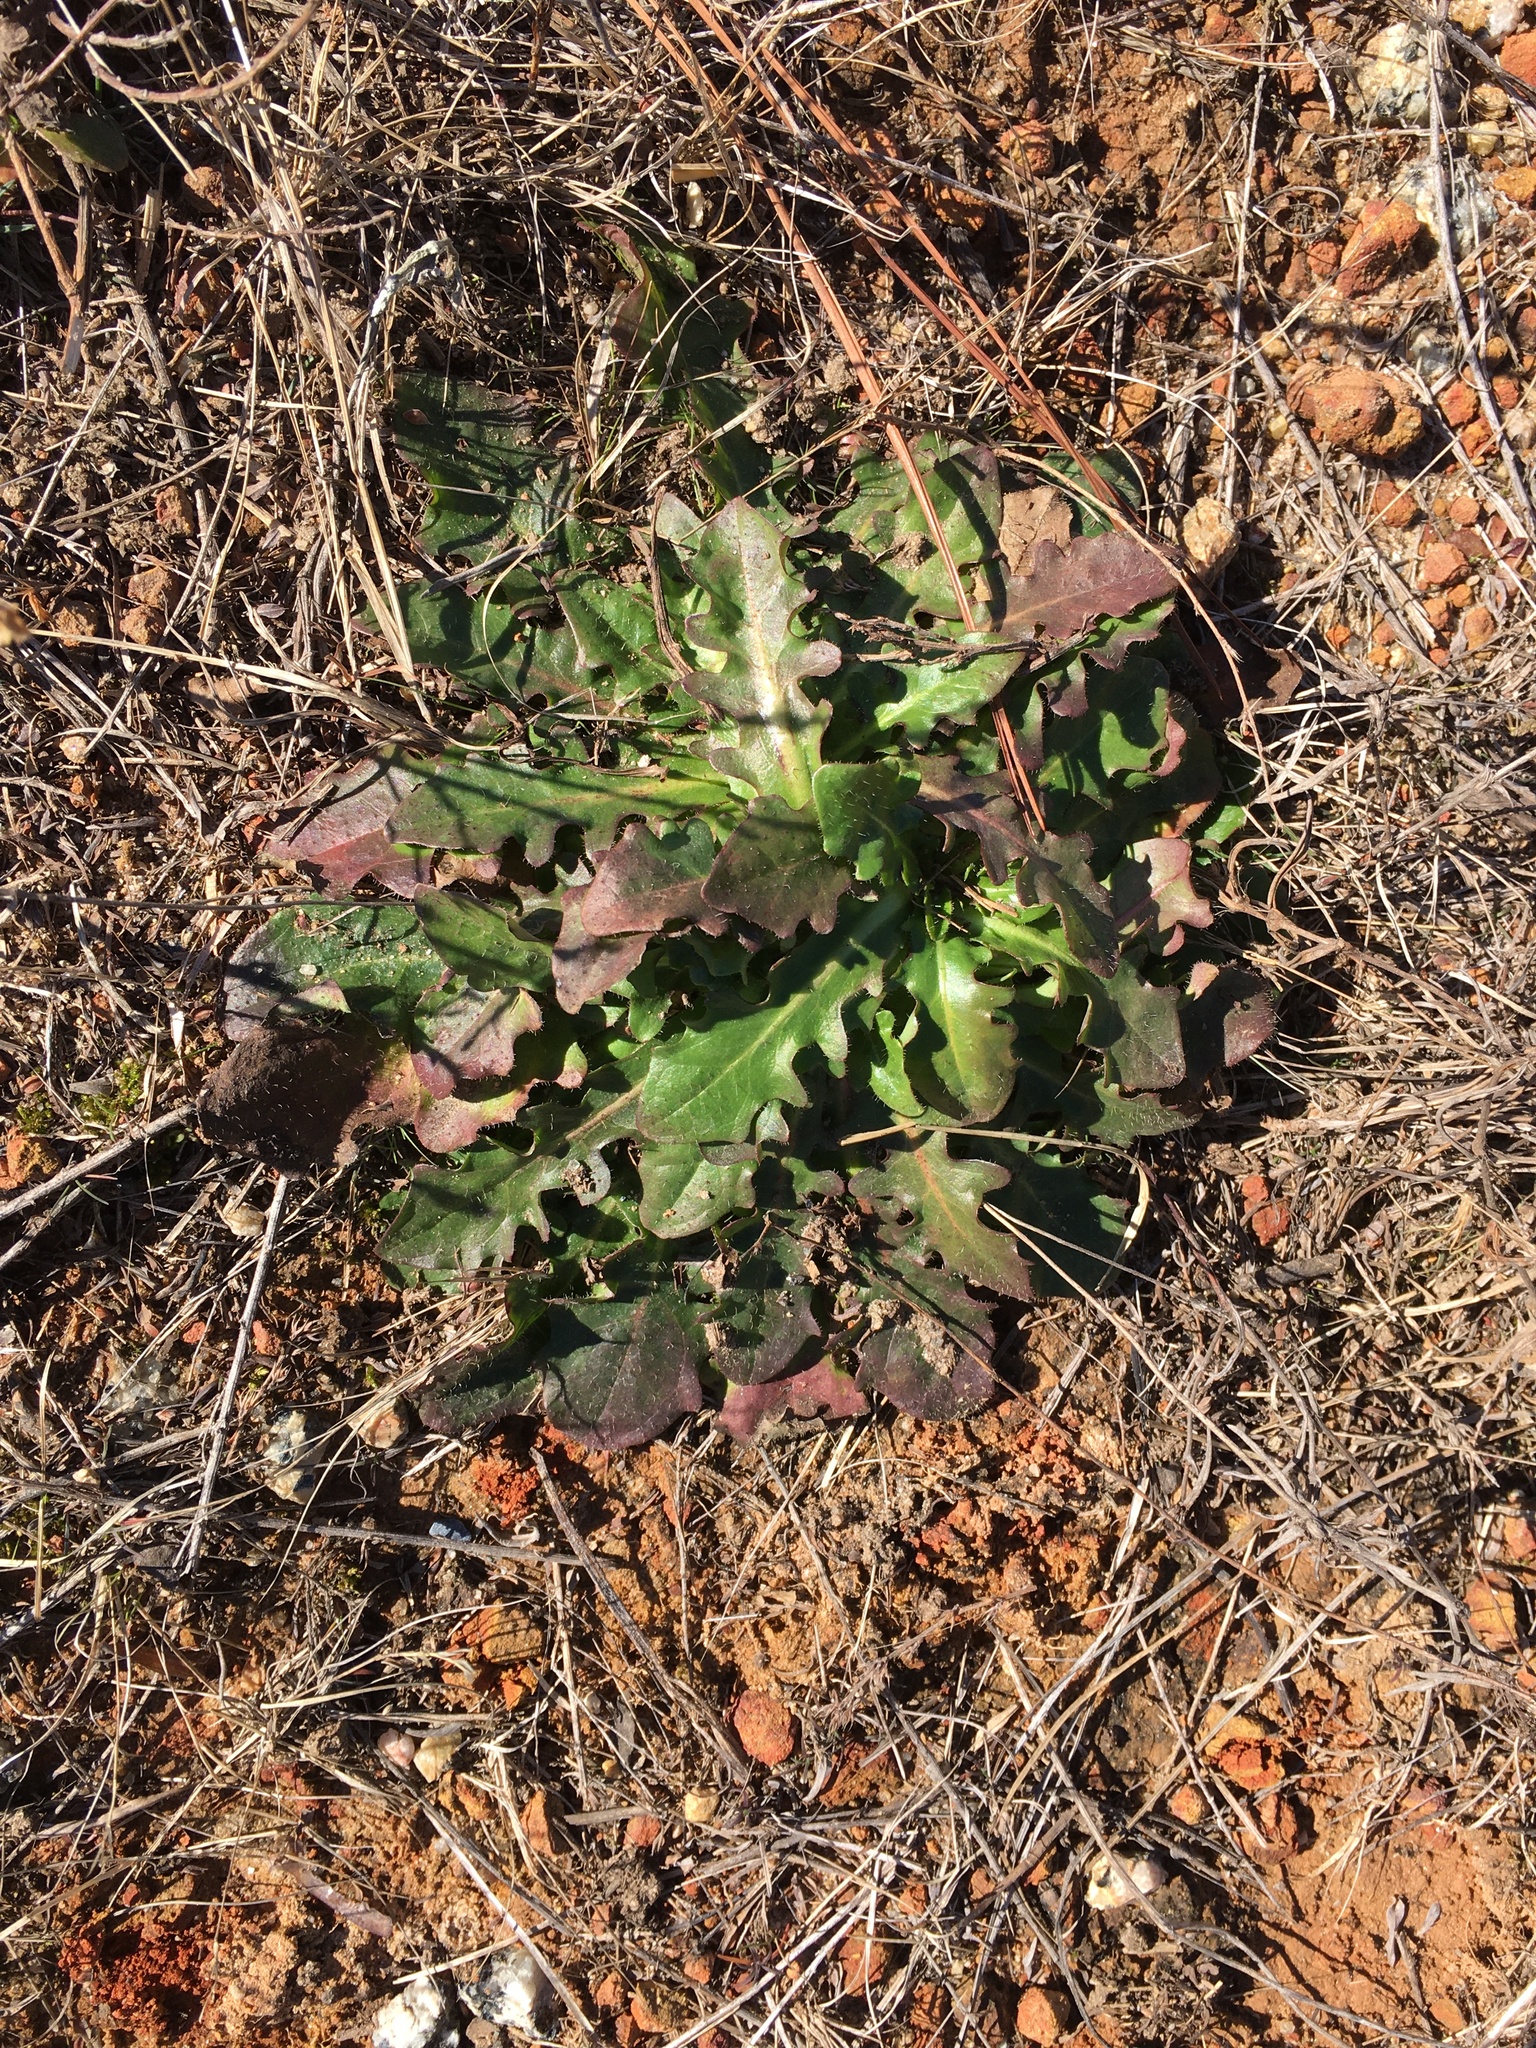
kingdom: Plantae
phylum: Tracheophyta
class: Magnoliopsida
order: Asterales
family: Asteraceae
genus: Hypochaeris
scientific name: Hypochaeris radicata
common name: Flatweed
